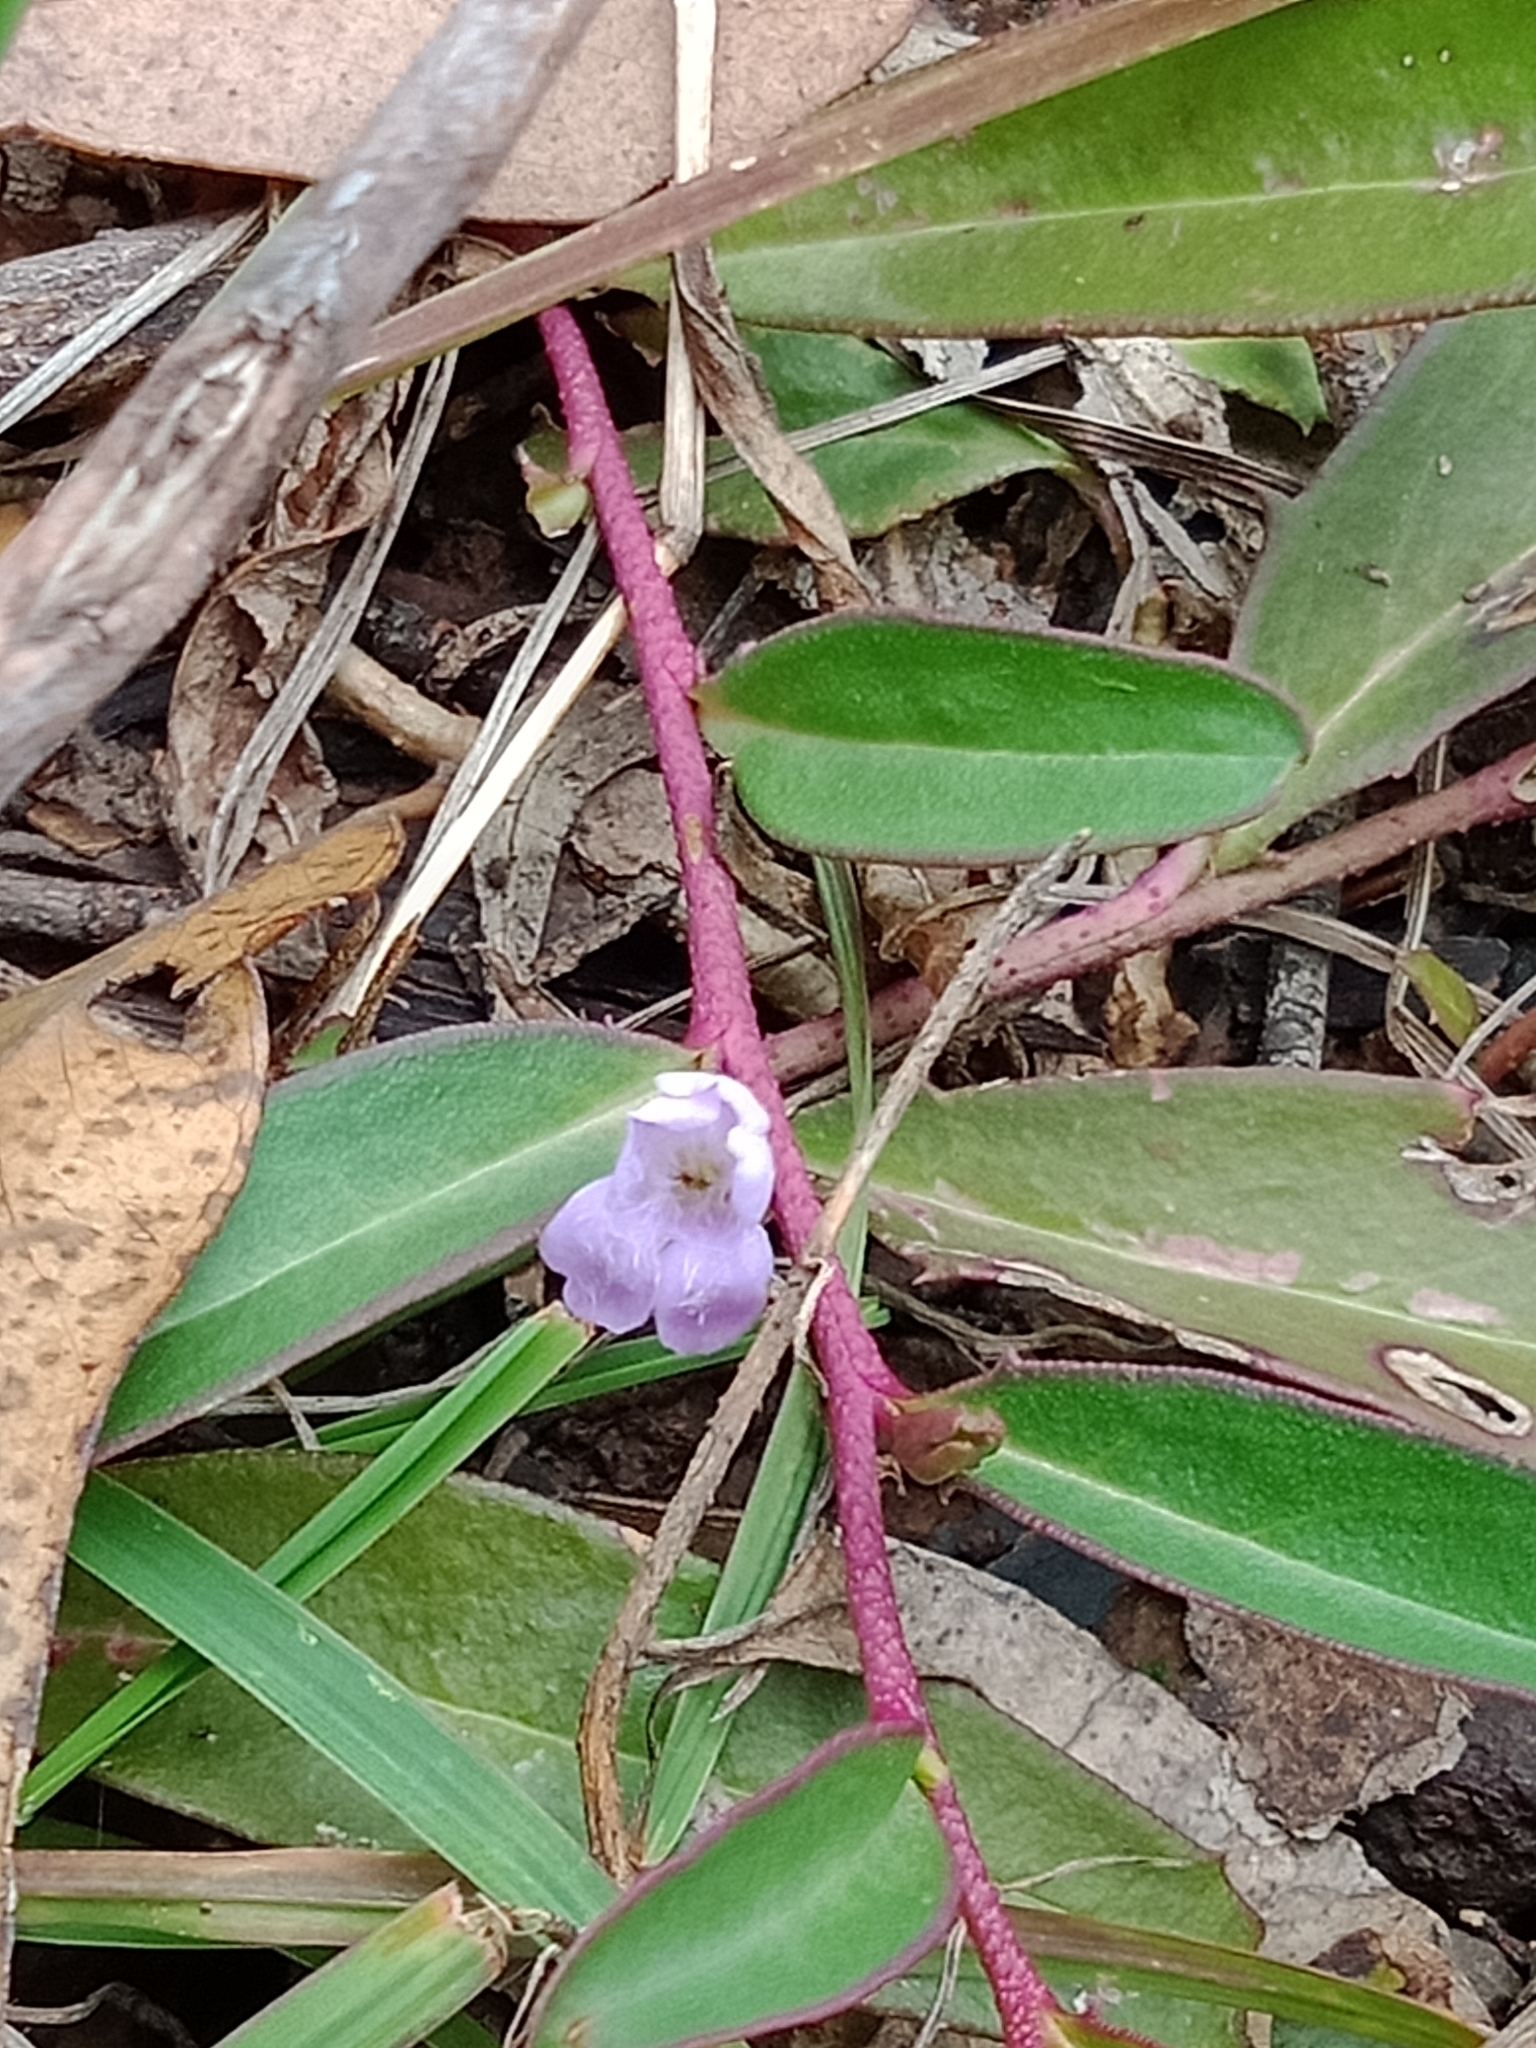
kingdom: Plantae
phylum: Tracheophyta
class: Magnoliopsida
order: Lamiales
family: Scrophulariaceae
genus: Eremophila
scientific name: Eremophila debilis
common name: Winter-apple
